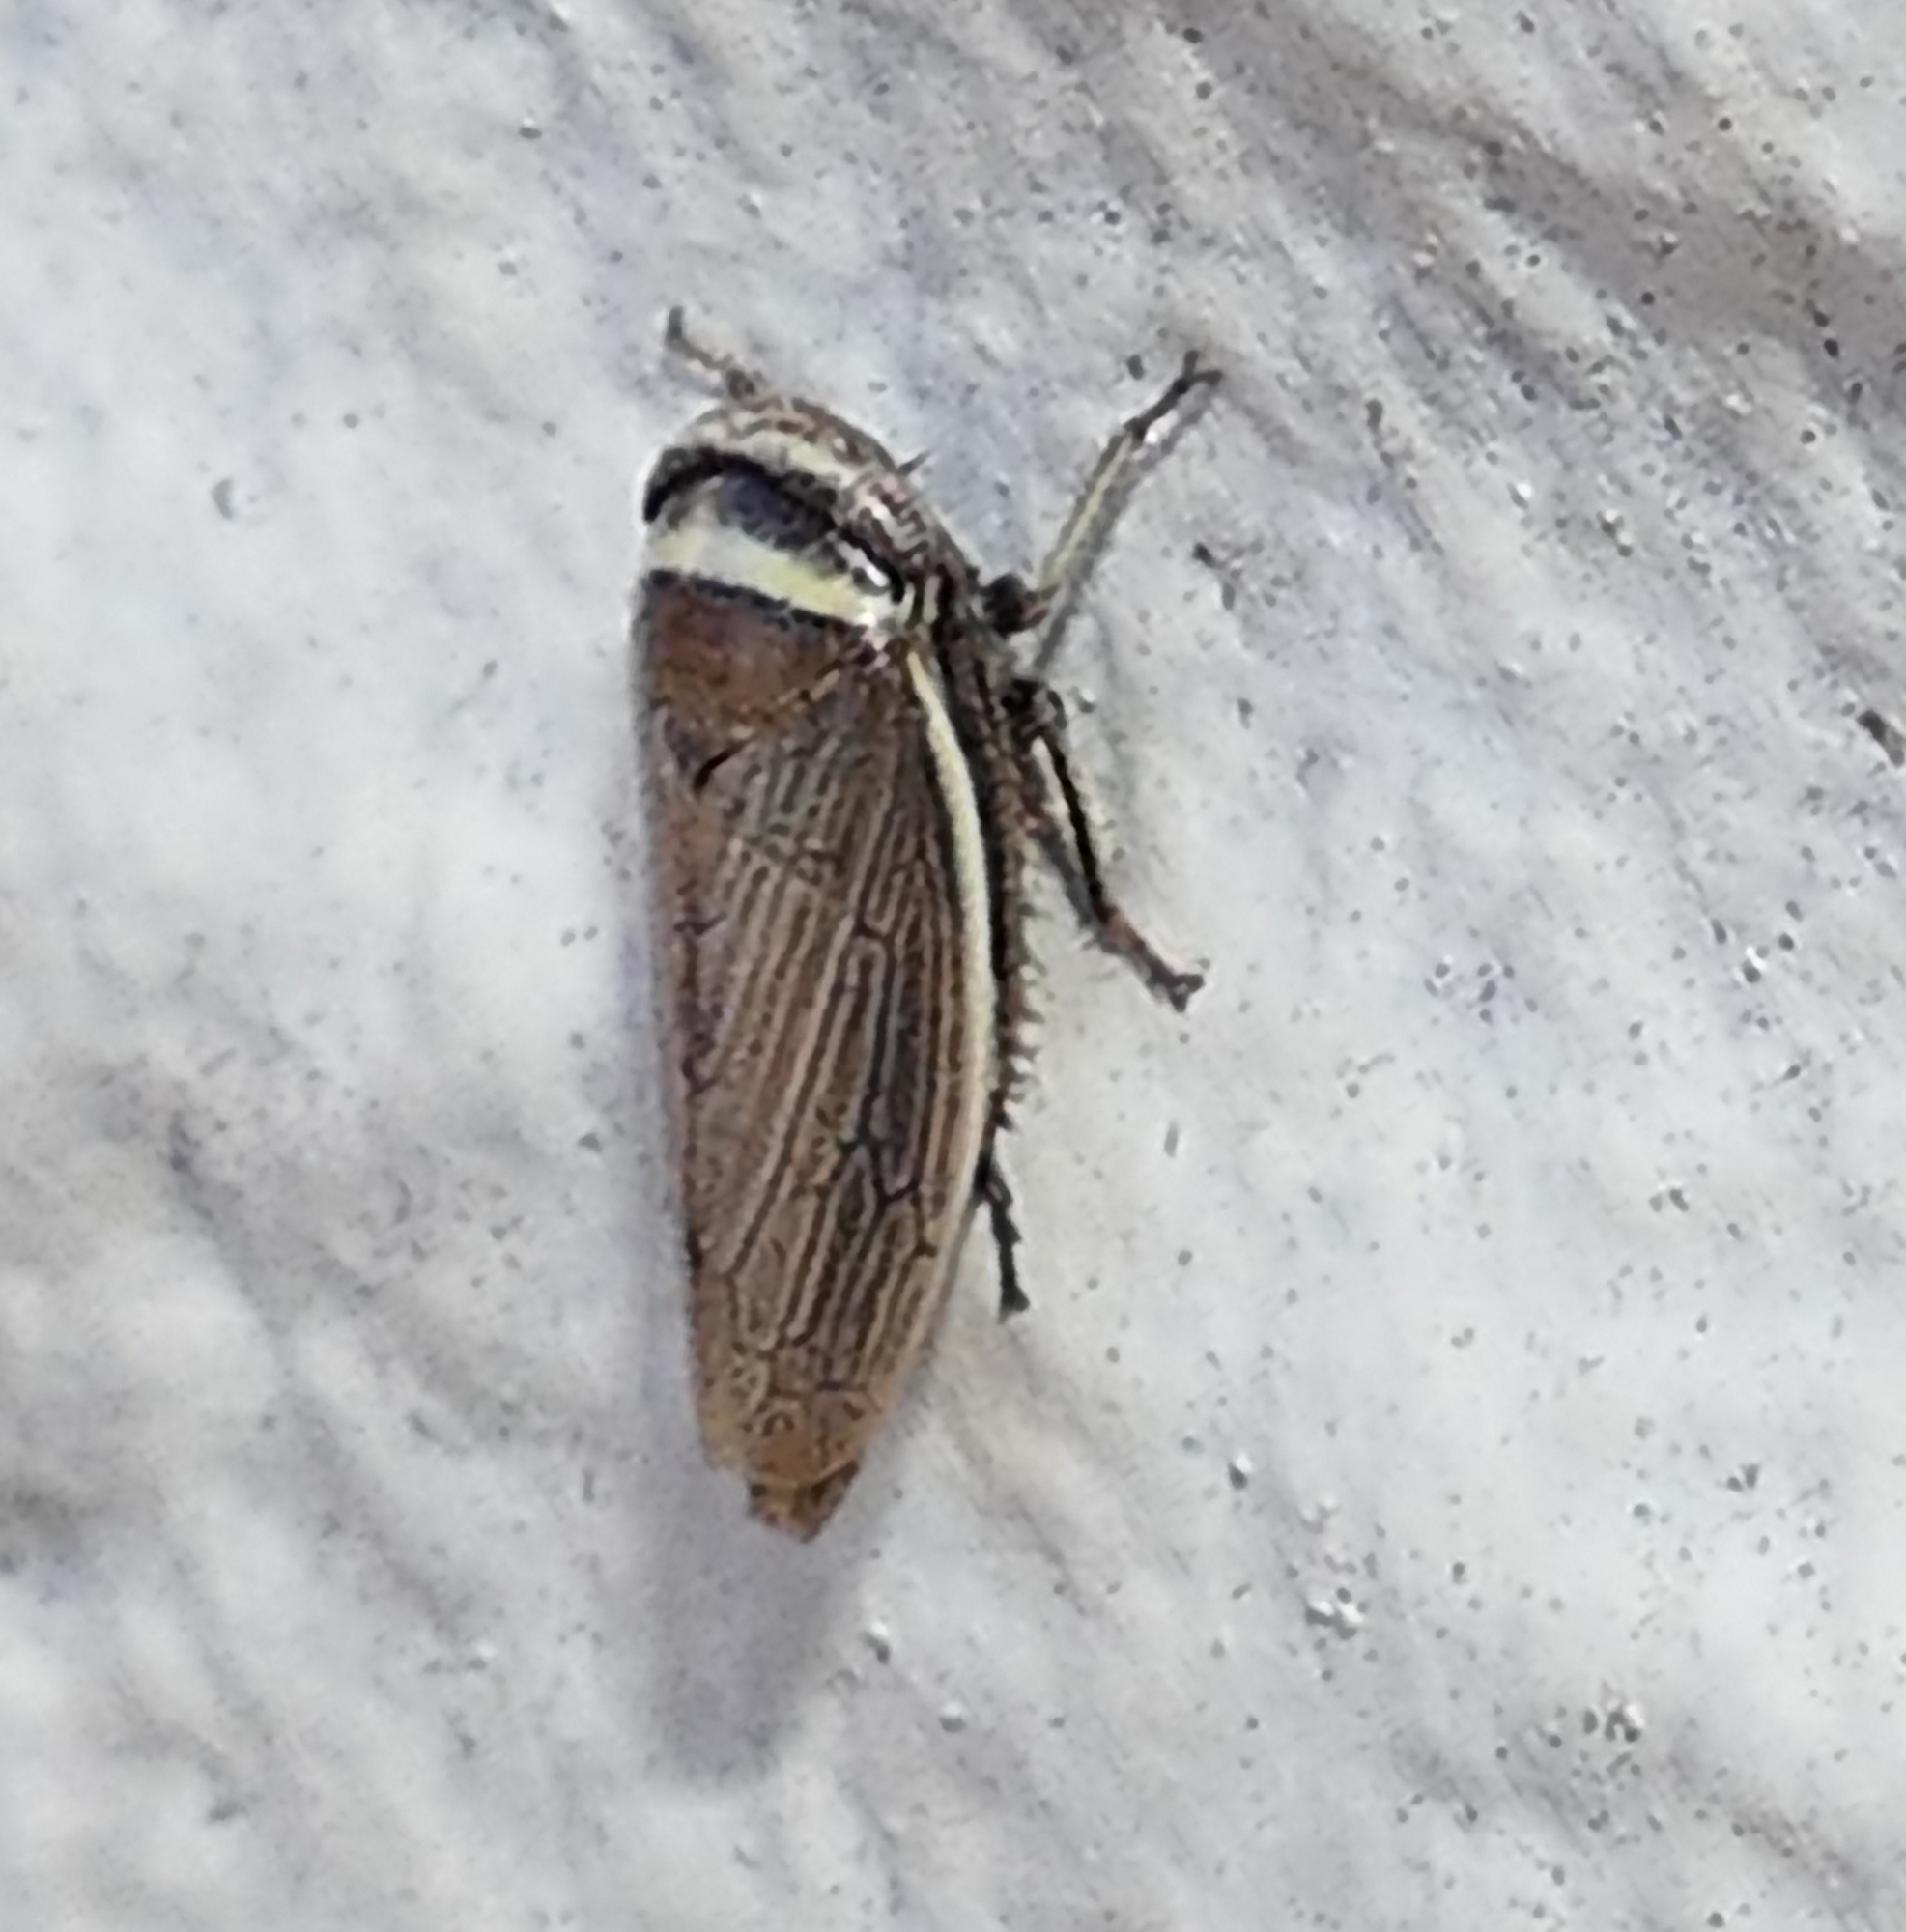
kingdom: Animalia
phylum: Arthropoda
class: Insecta
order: Hemiptera
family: Cicadellidae
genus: Pendarus
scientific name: Pendarus magnus
